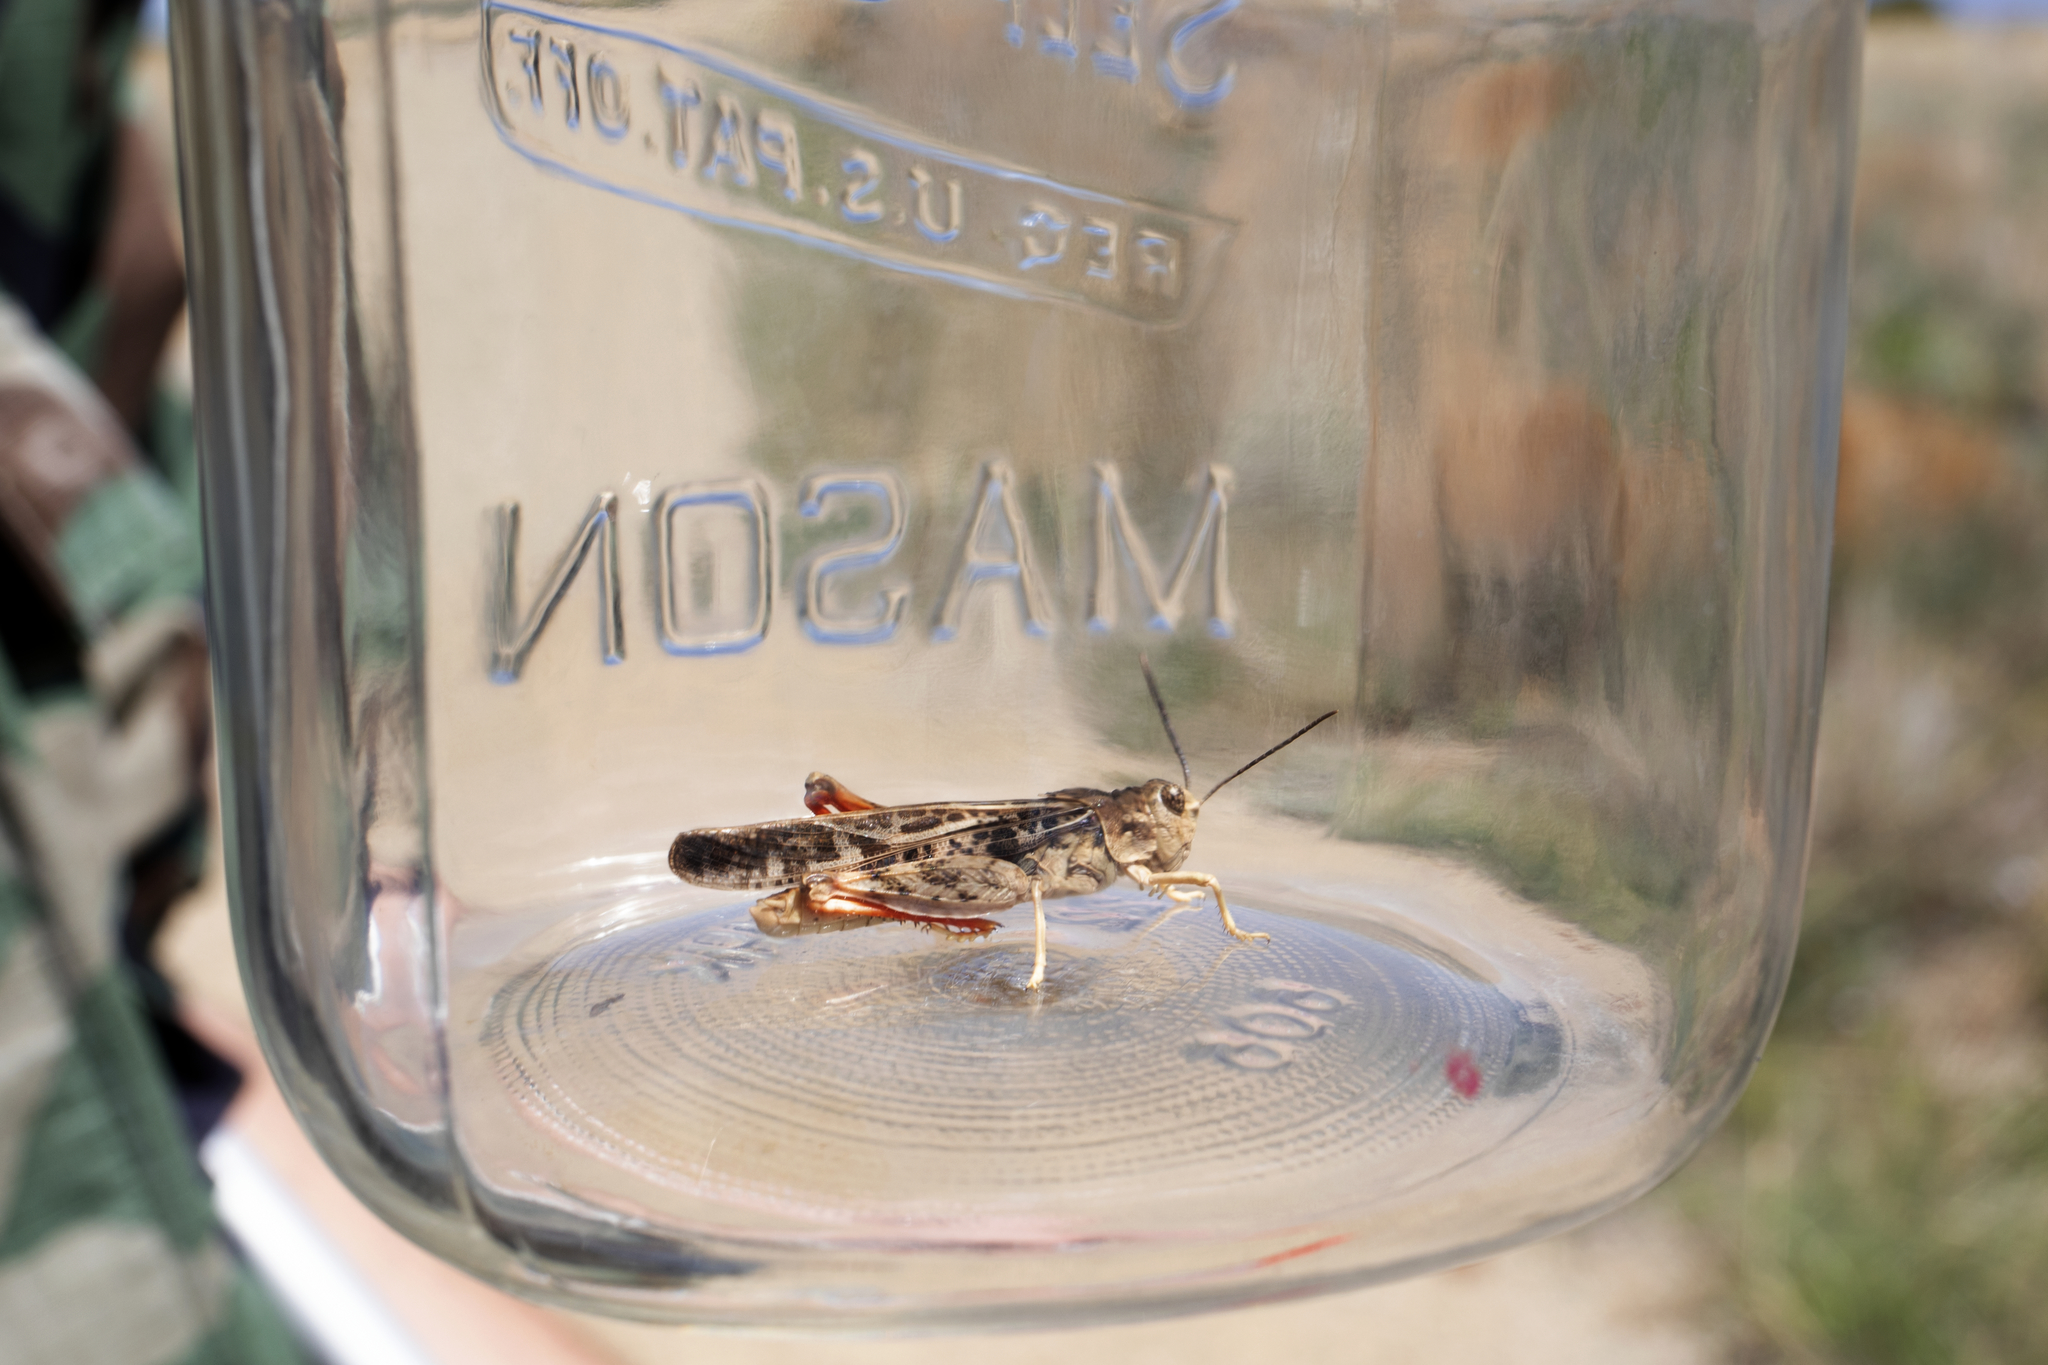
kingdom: Animalia
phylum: Arthropoda
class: Insecta
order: Orthoptera
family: Acrididae
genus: Xanthippus
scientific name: Xanthippus corallipes
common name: Redshanked grasshopper
